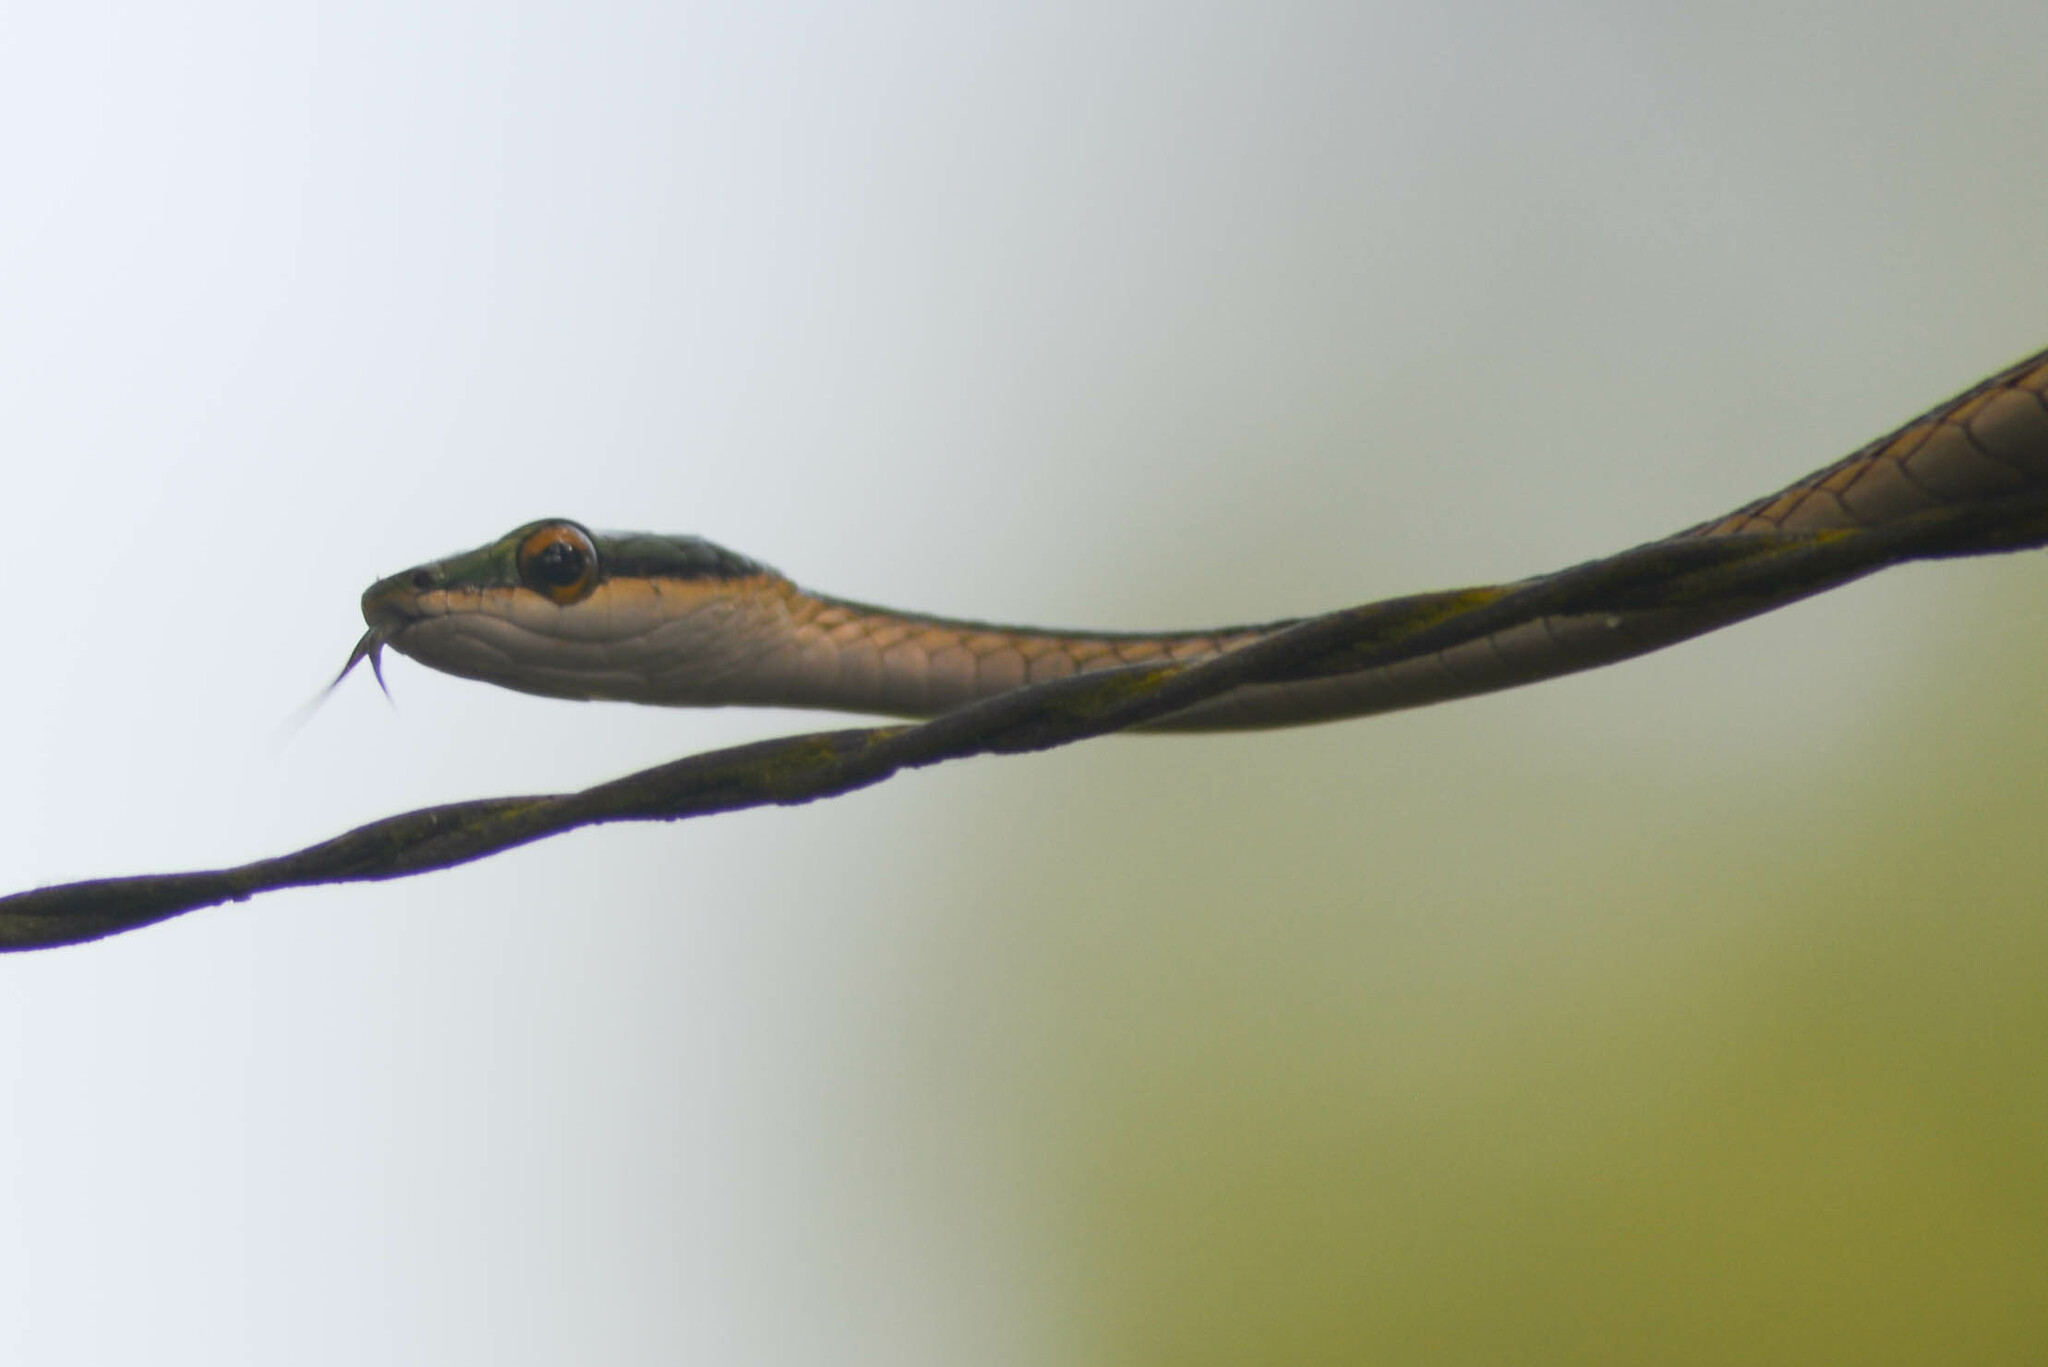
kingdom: Animalia
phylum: Chordata
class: Squamata
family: Colubridae
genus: Leptophis
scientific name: Leptophis ahaetulla
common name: Parrot snake
